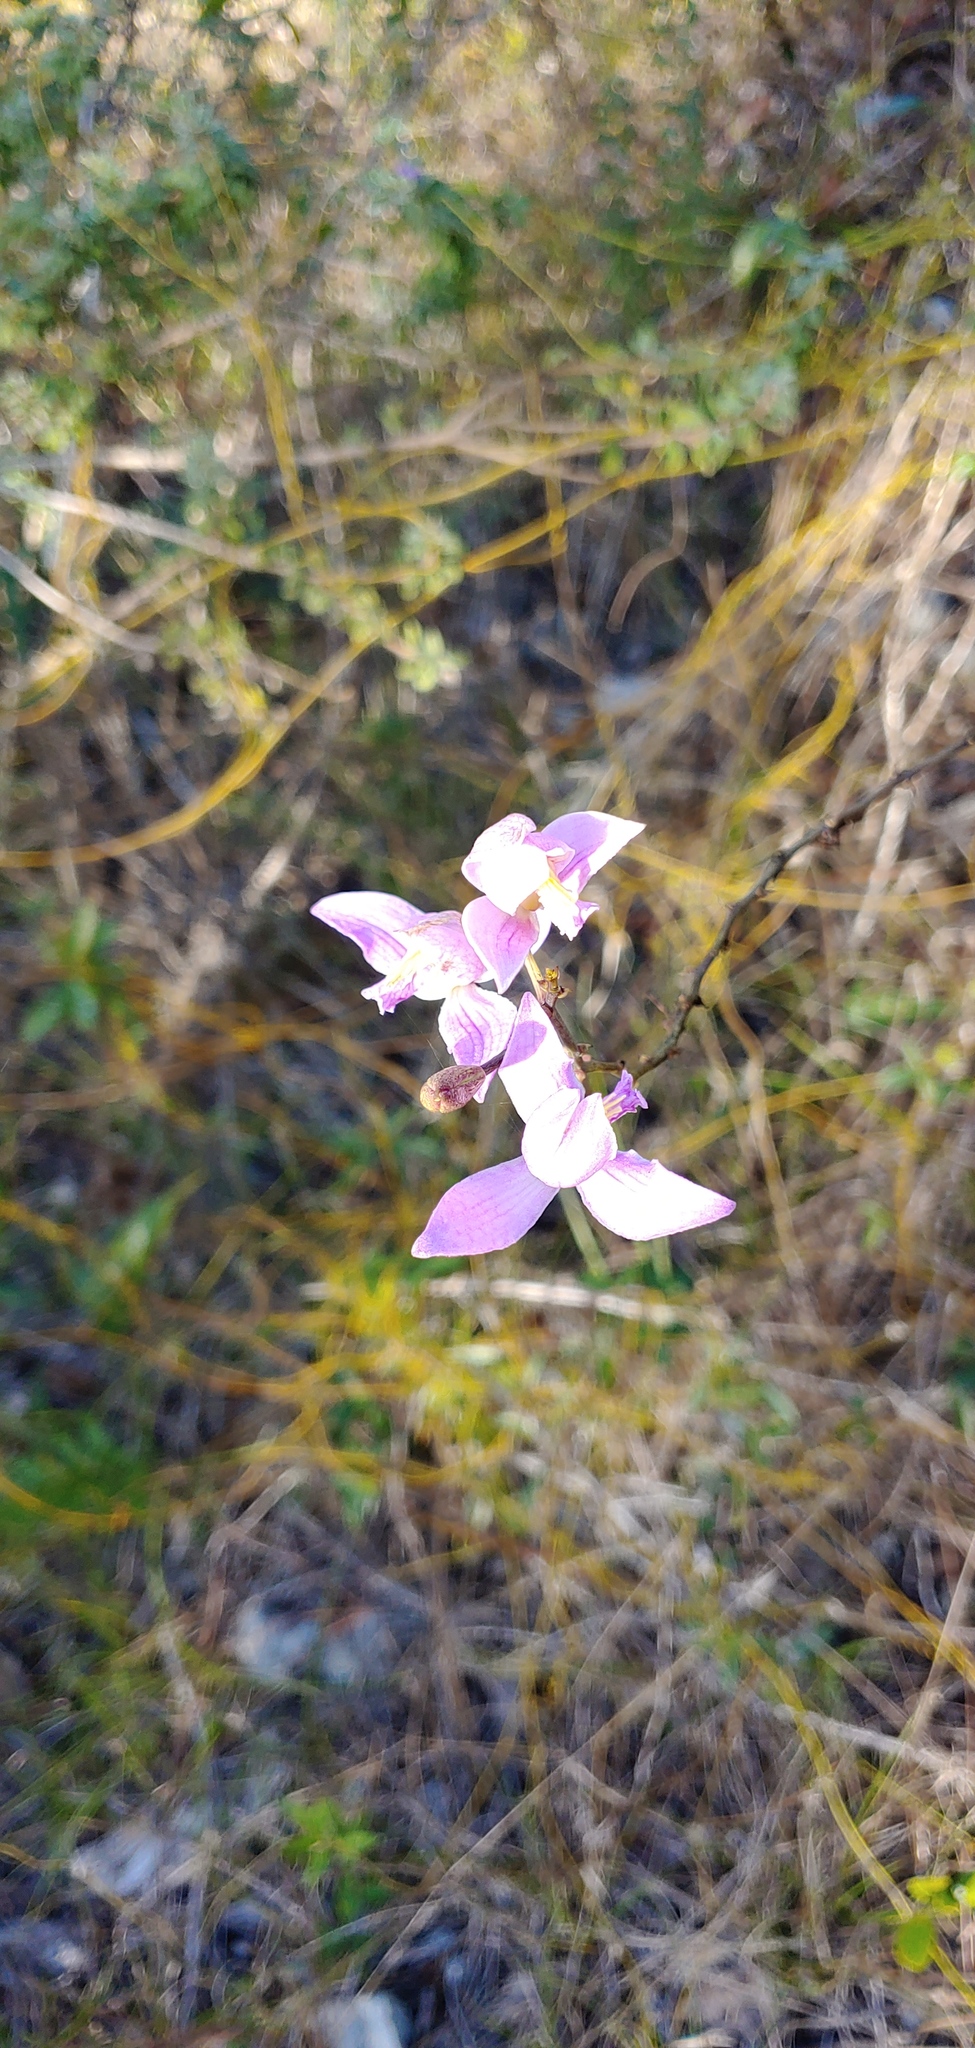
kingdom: Plantae
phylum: Tracheophyta
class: Liliopsida
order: Asparagales
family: Orchidaceae
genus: Bletia
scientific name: Bletia purpurea
